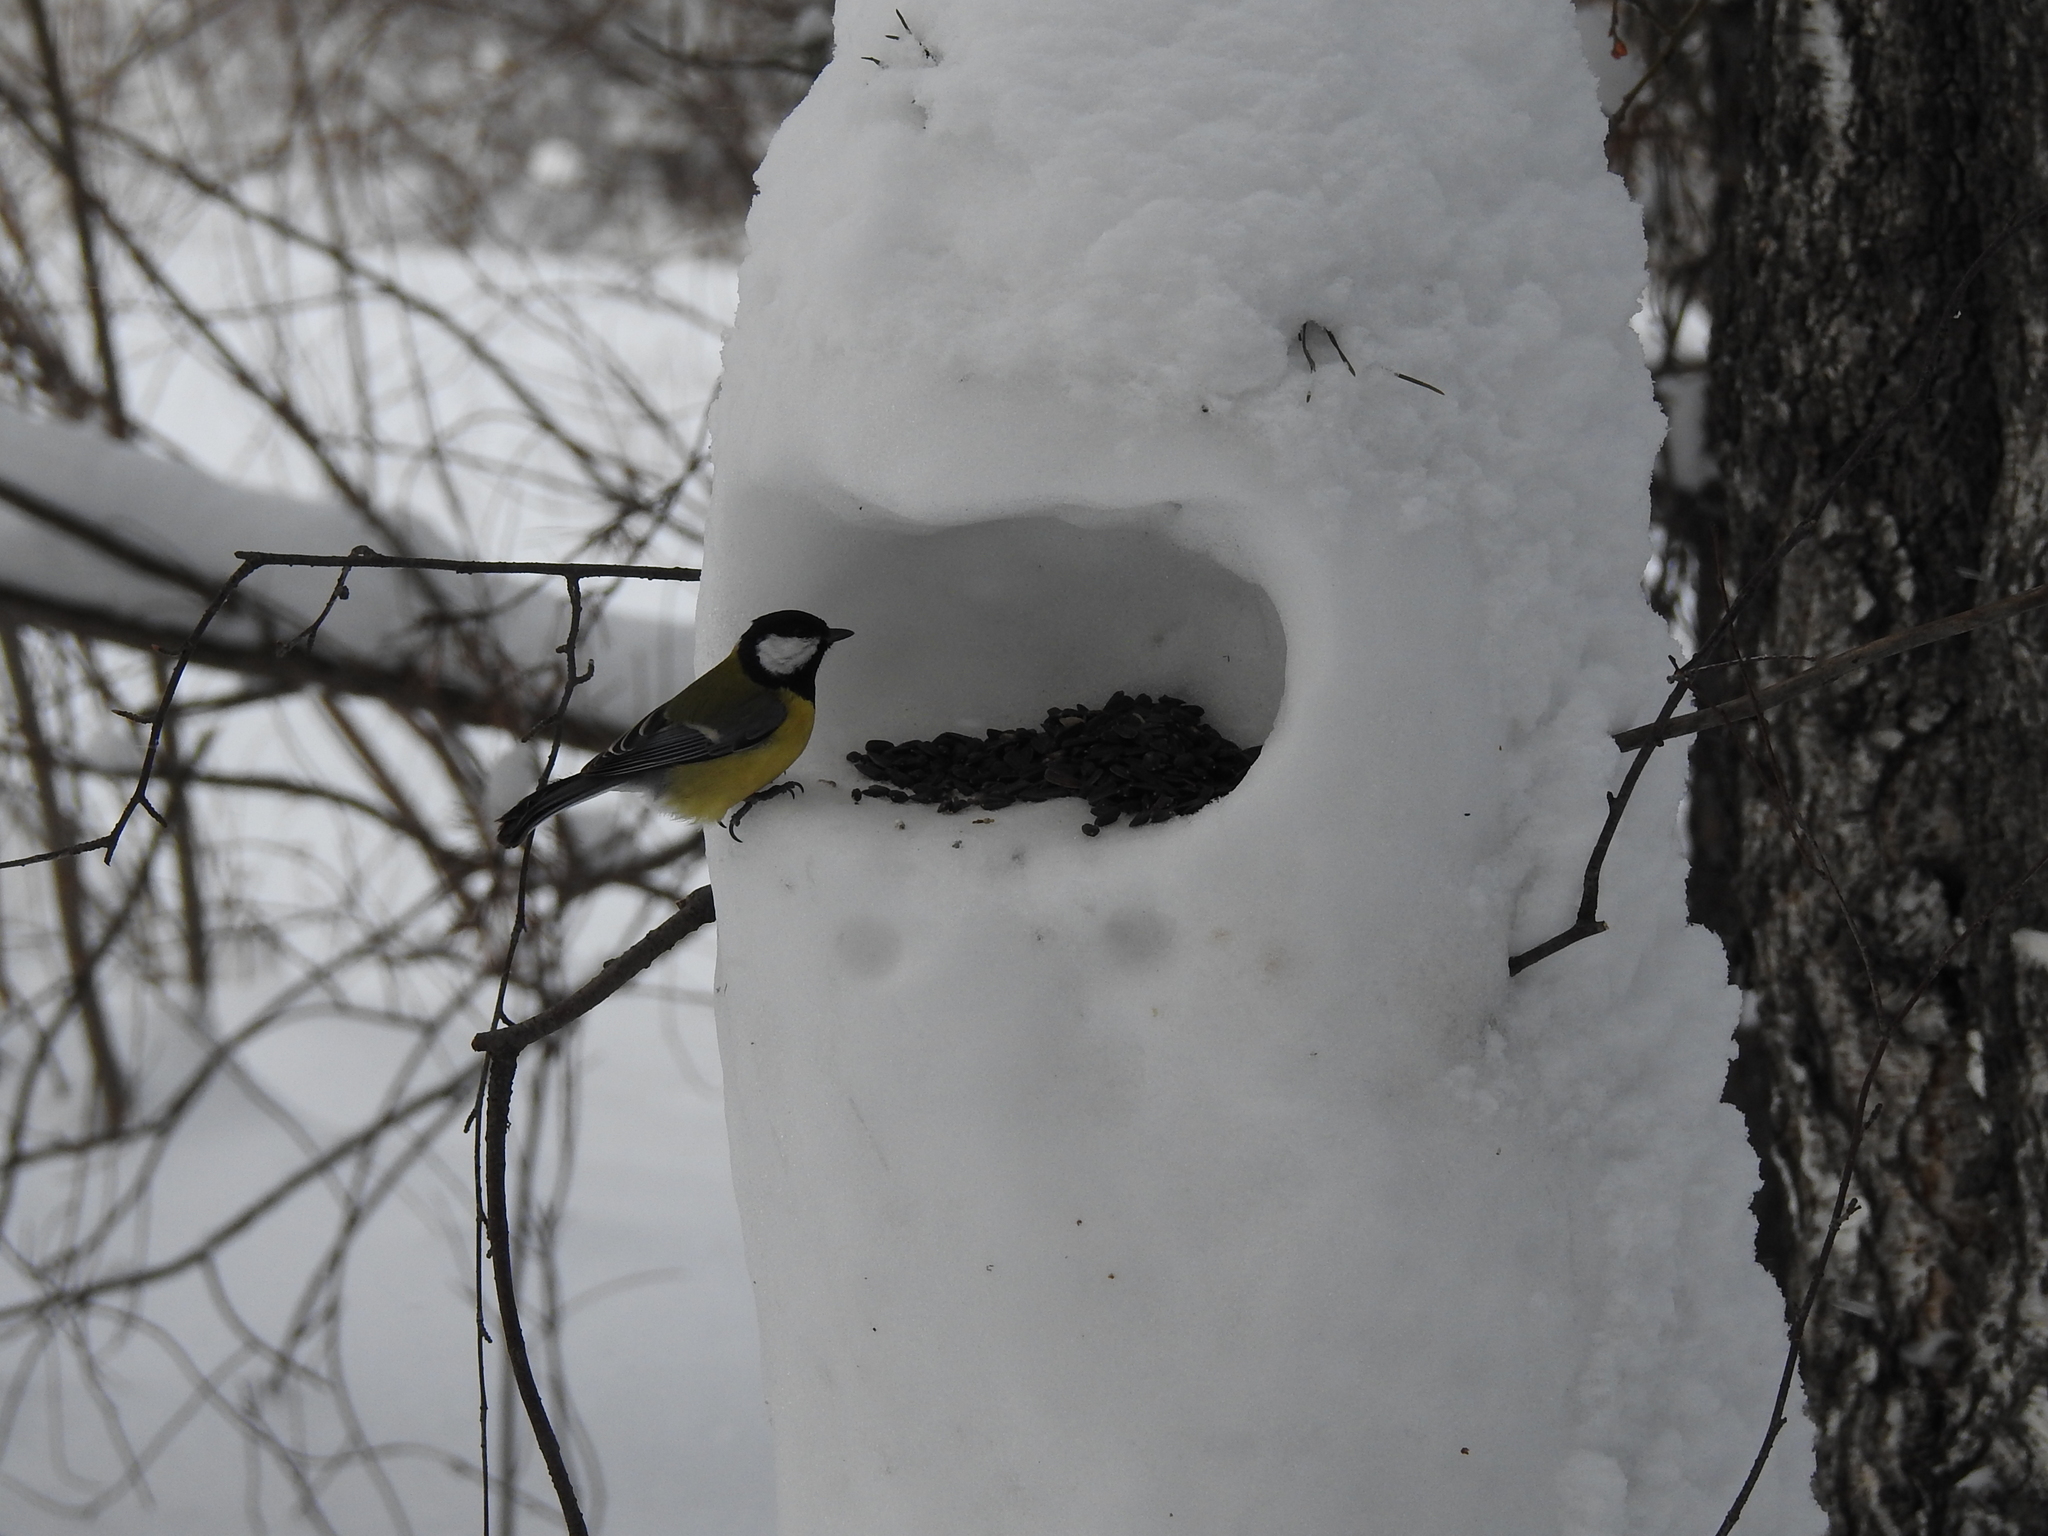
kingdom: Animalia
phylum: Chordata
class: Aves
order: Passeriformes
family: Paridae
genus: Parus
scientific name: Parus major
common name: Great tit
